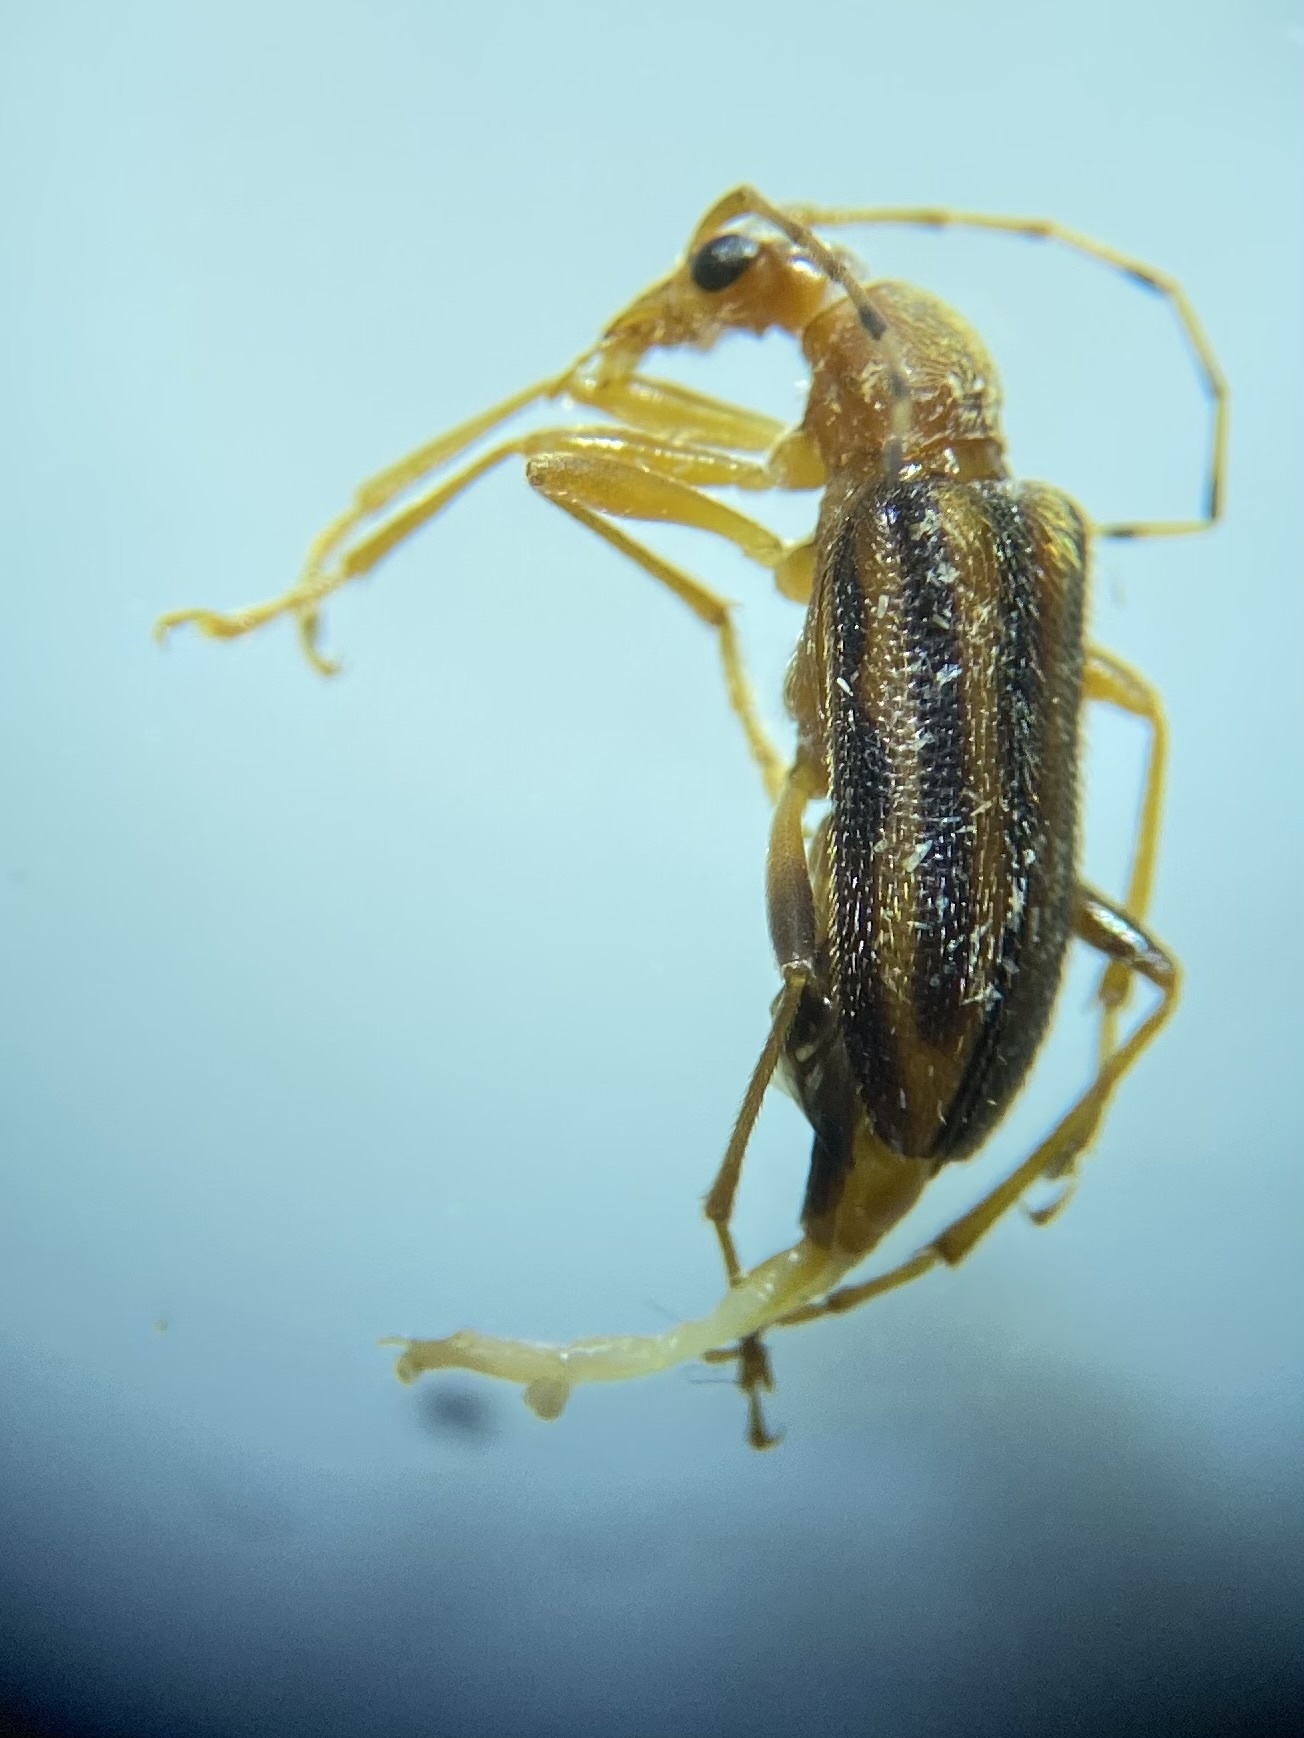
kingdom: Animalia
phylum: Arthropoda
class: Insecta
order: Coleoptera
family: Cerambycidae
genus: Metacmaeops
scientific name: Metacmaeops vittata
